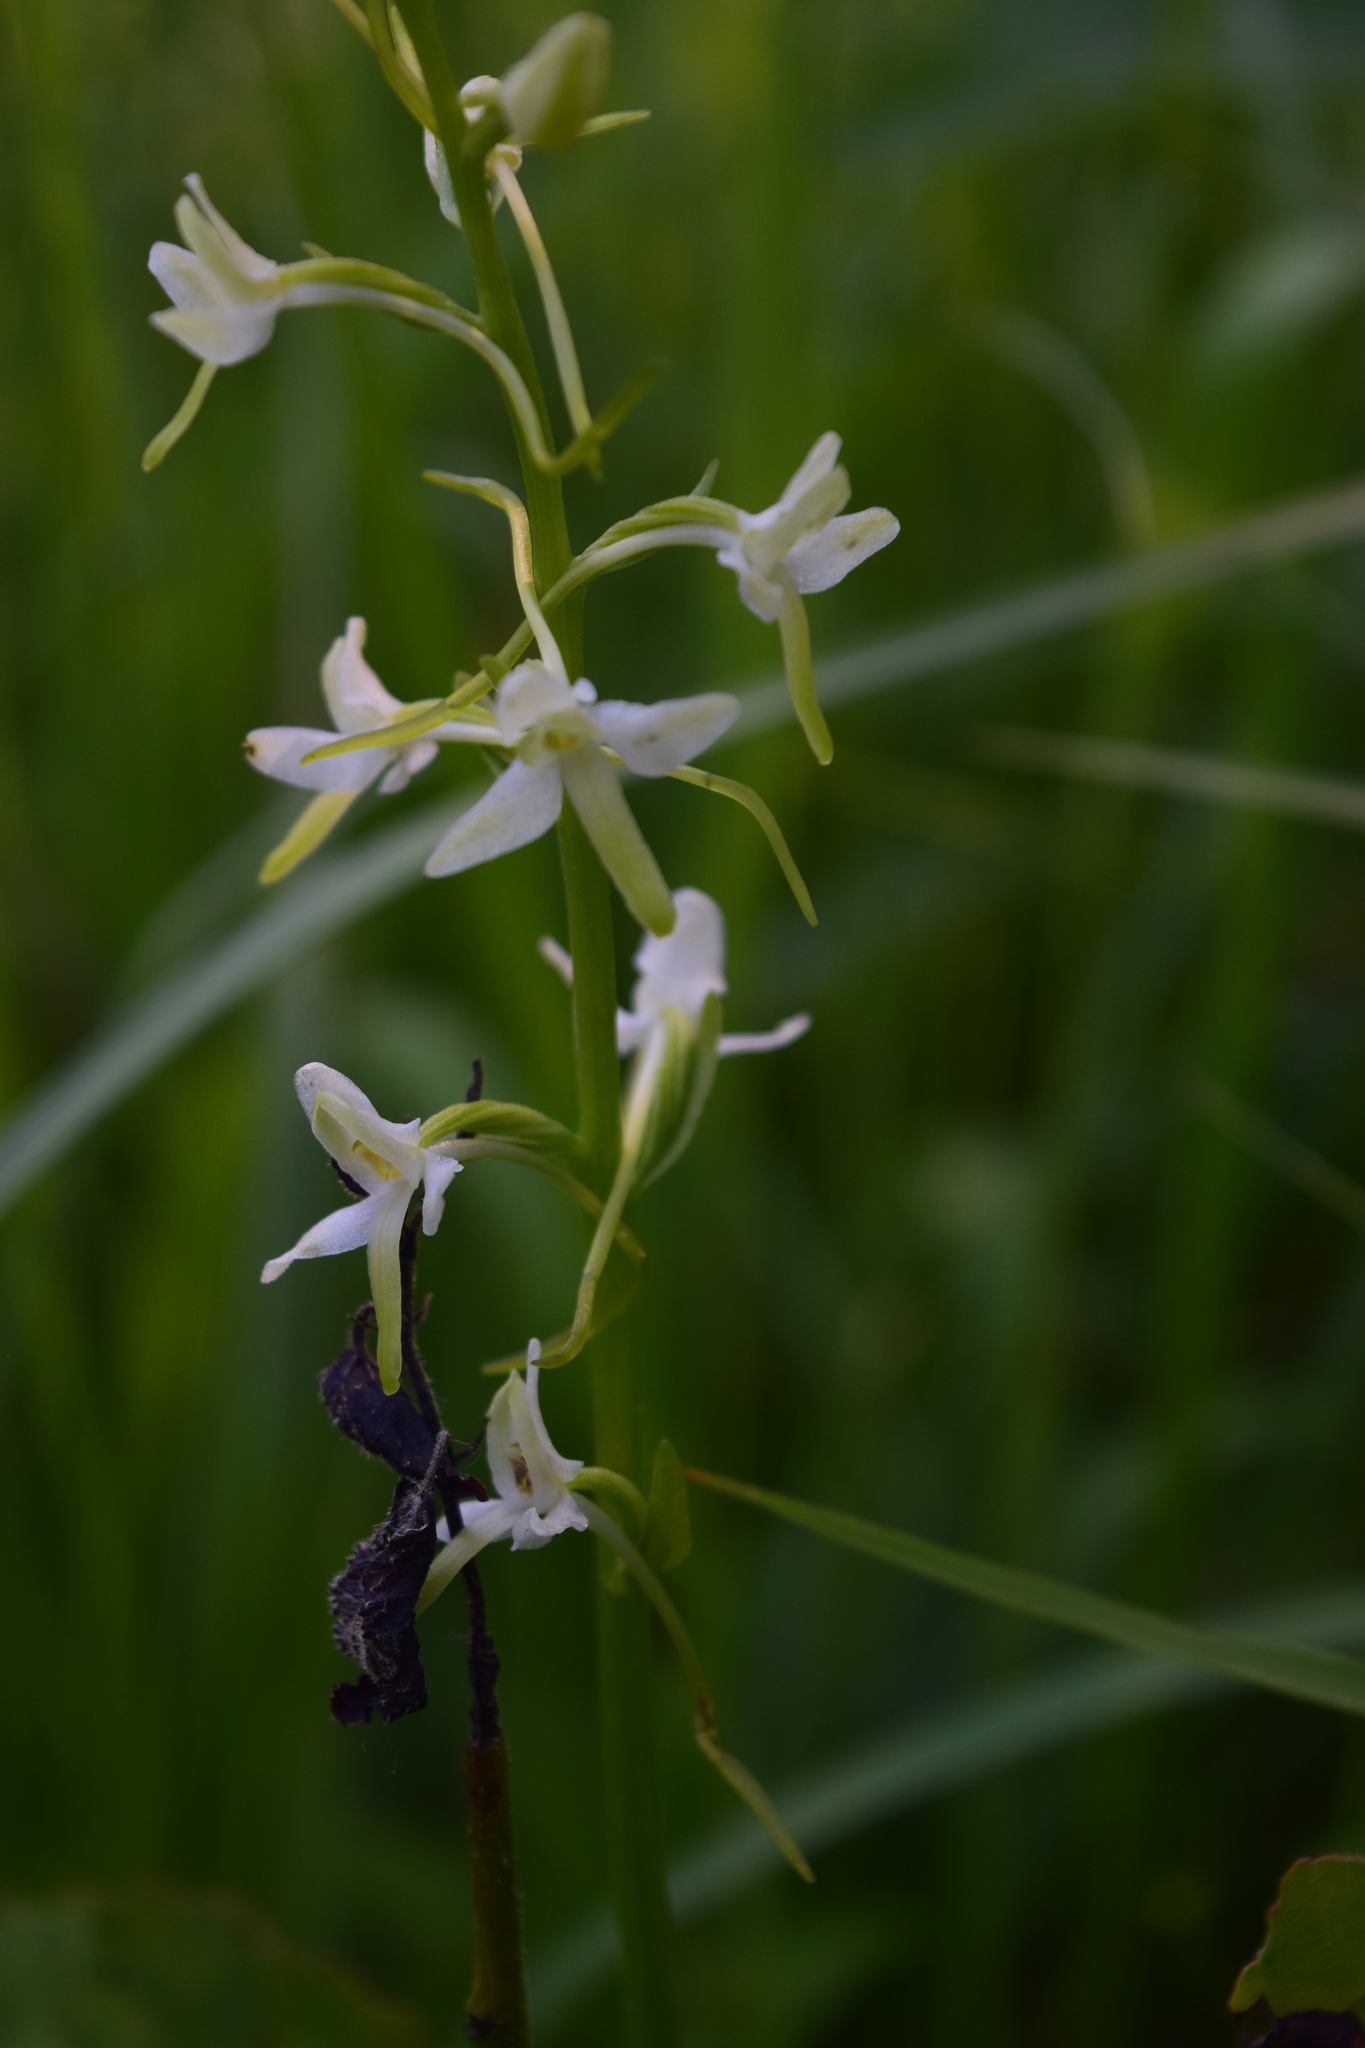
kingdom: Plantae
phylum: Tracheophyta
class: Liliopsida
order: Asparagales
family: Orchidaceae
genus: Platanthera
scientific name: Platanthera bifolia
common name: Lesser butterfly-orchid
